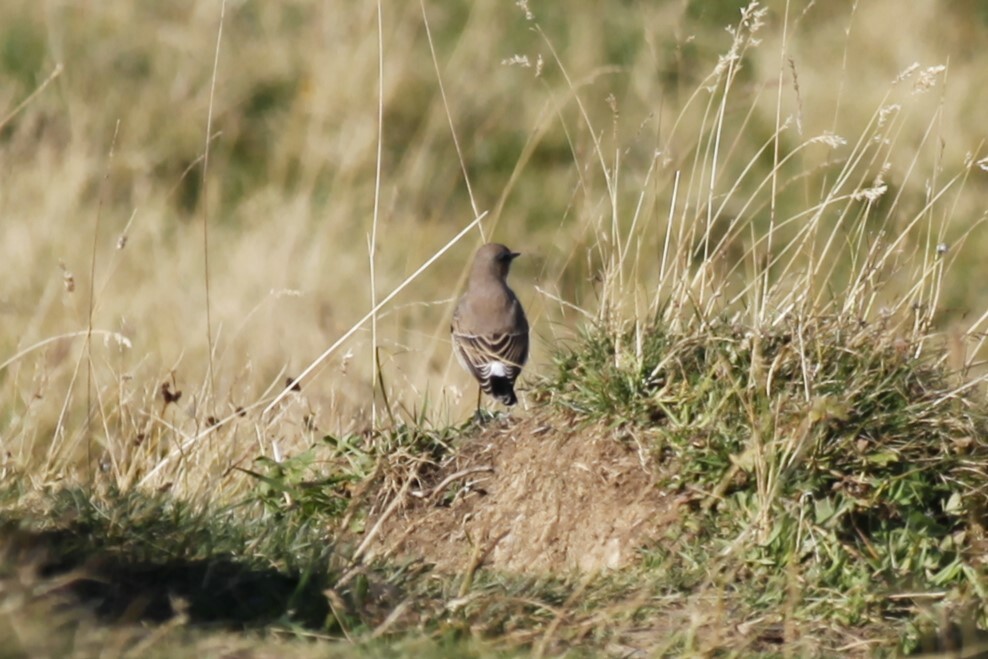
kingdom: Animalia
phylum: Chordata
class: Aves
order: Passeriformes
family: Muscicapidae
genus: Oenanthe
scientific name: Oenanthe oenanthe
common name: Northern wheatear
